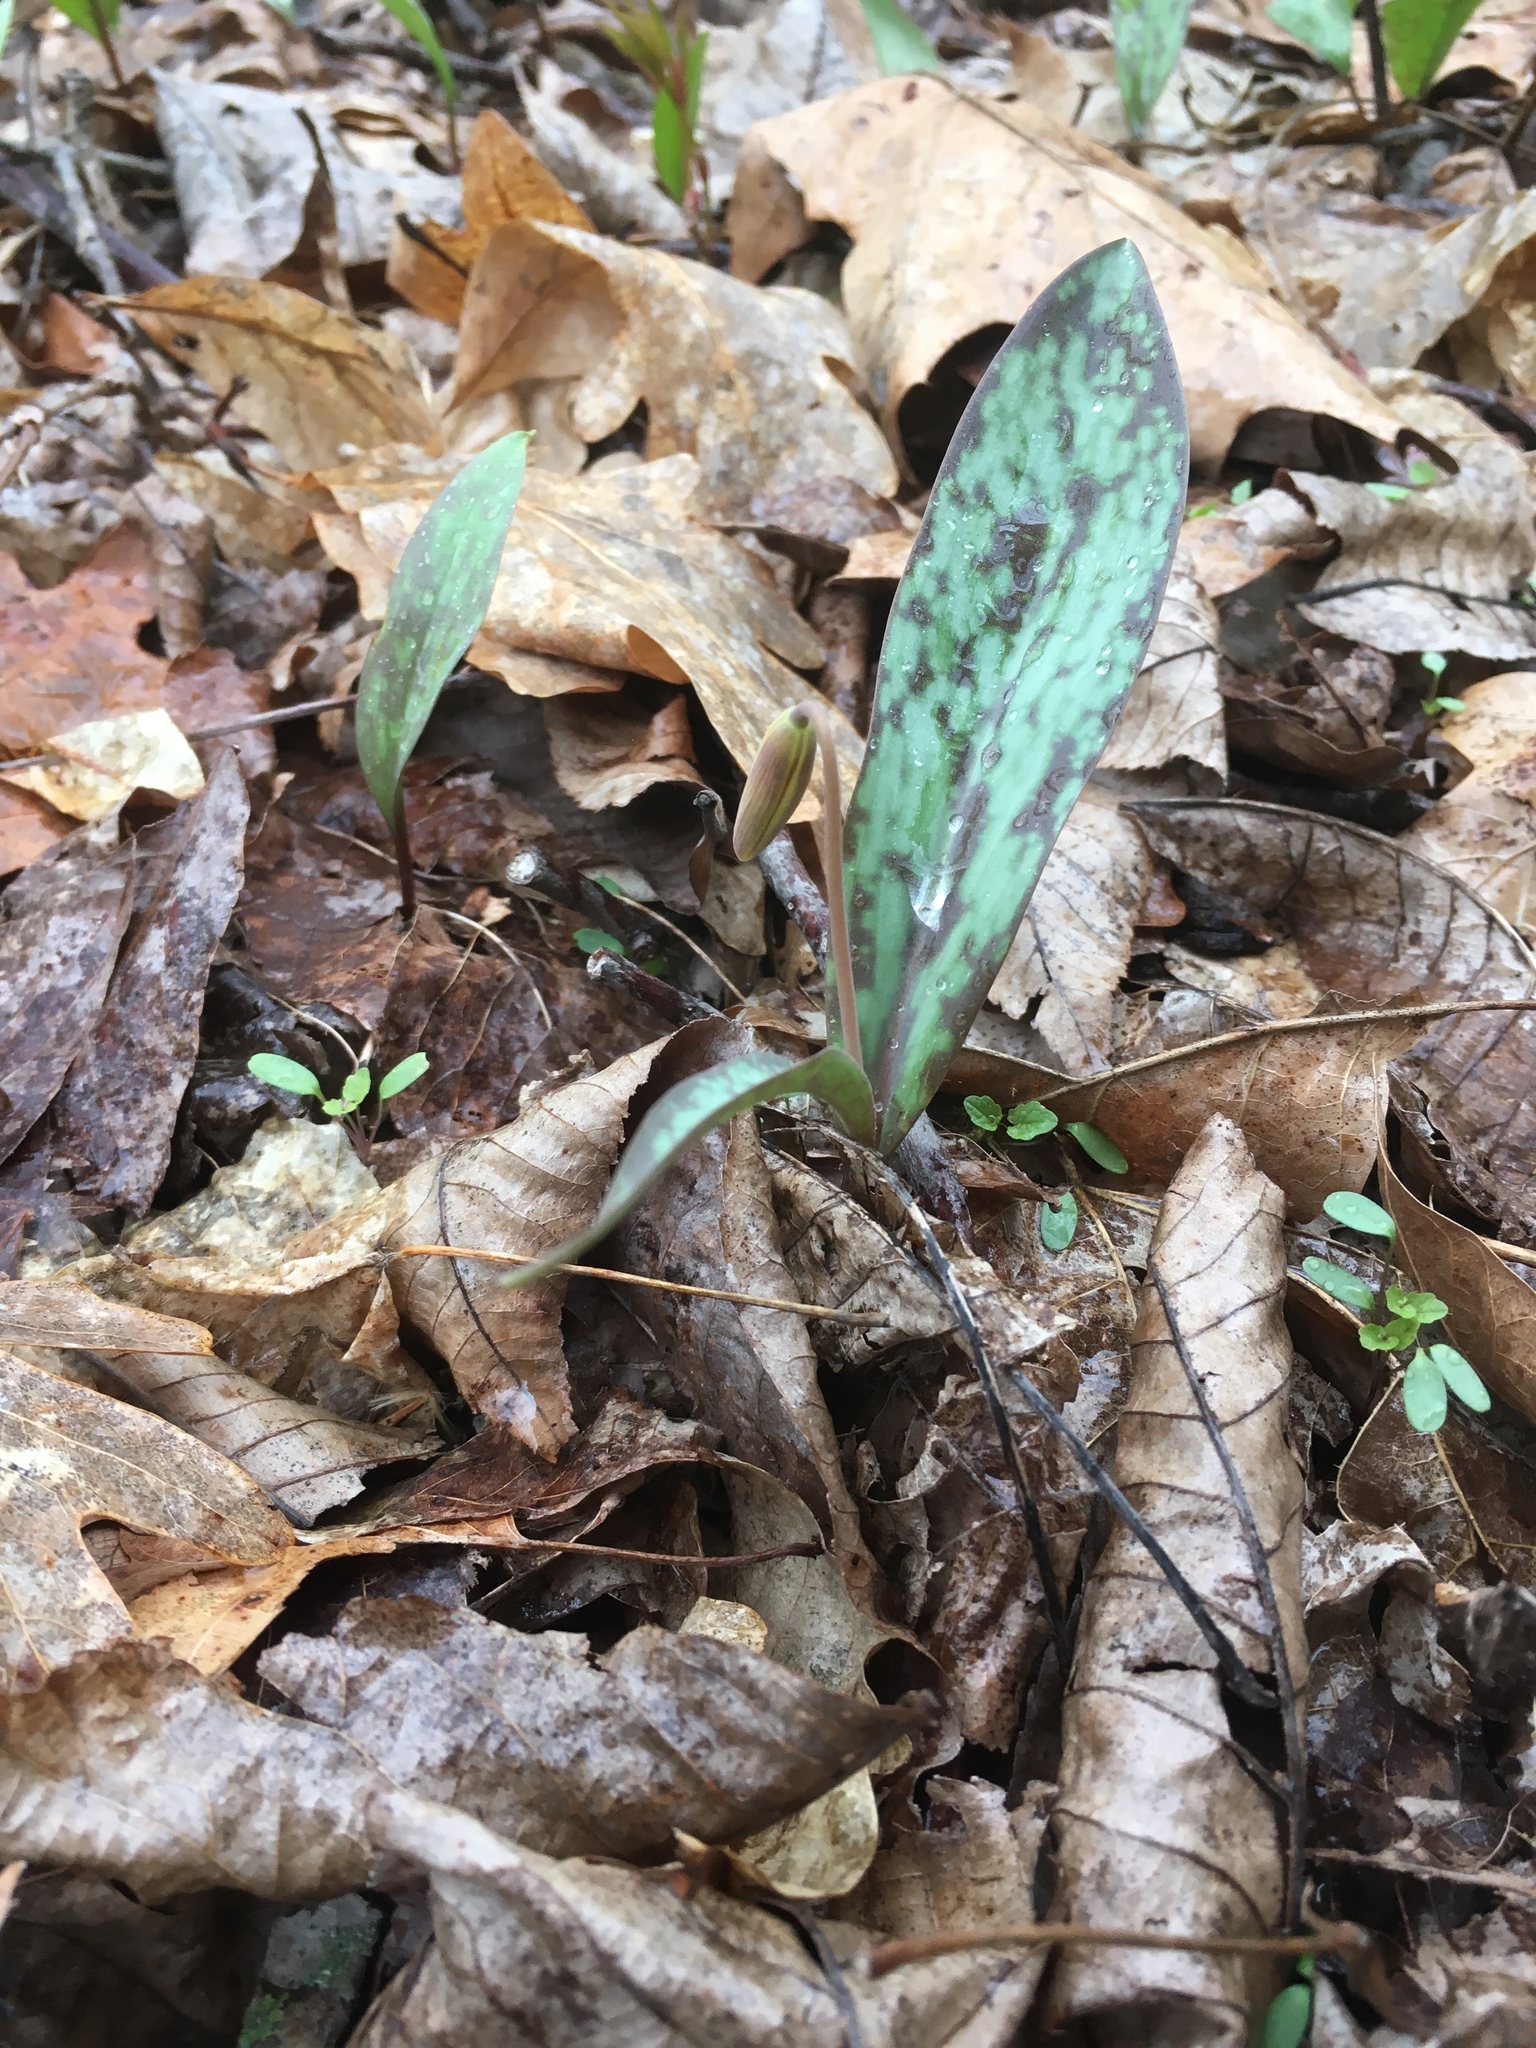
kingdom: Plantae
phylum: Tracheophyta
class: Liliopsida
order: Liliales
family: Liliaceae
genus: Erythronium
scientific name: Erythronium americanum
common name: Yellow adder's-tongue
